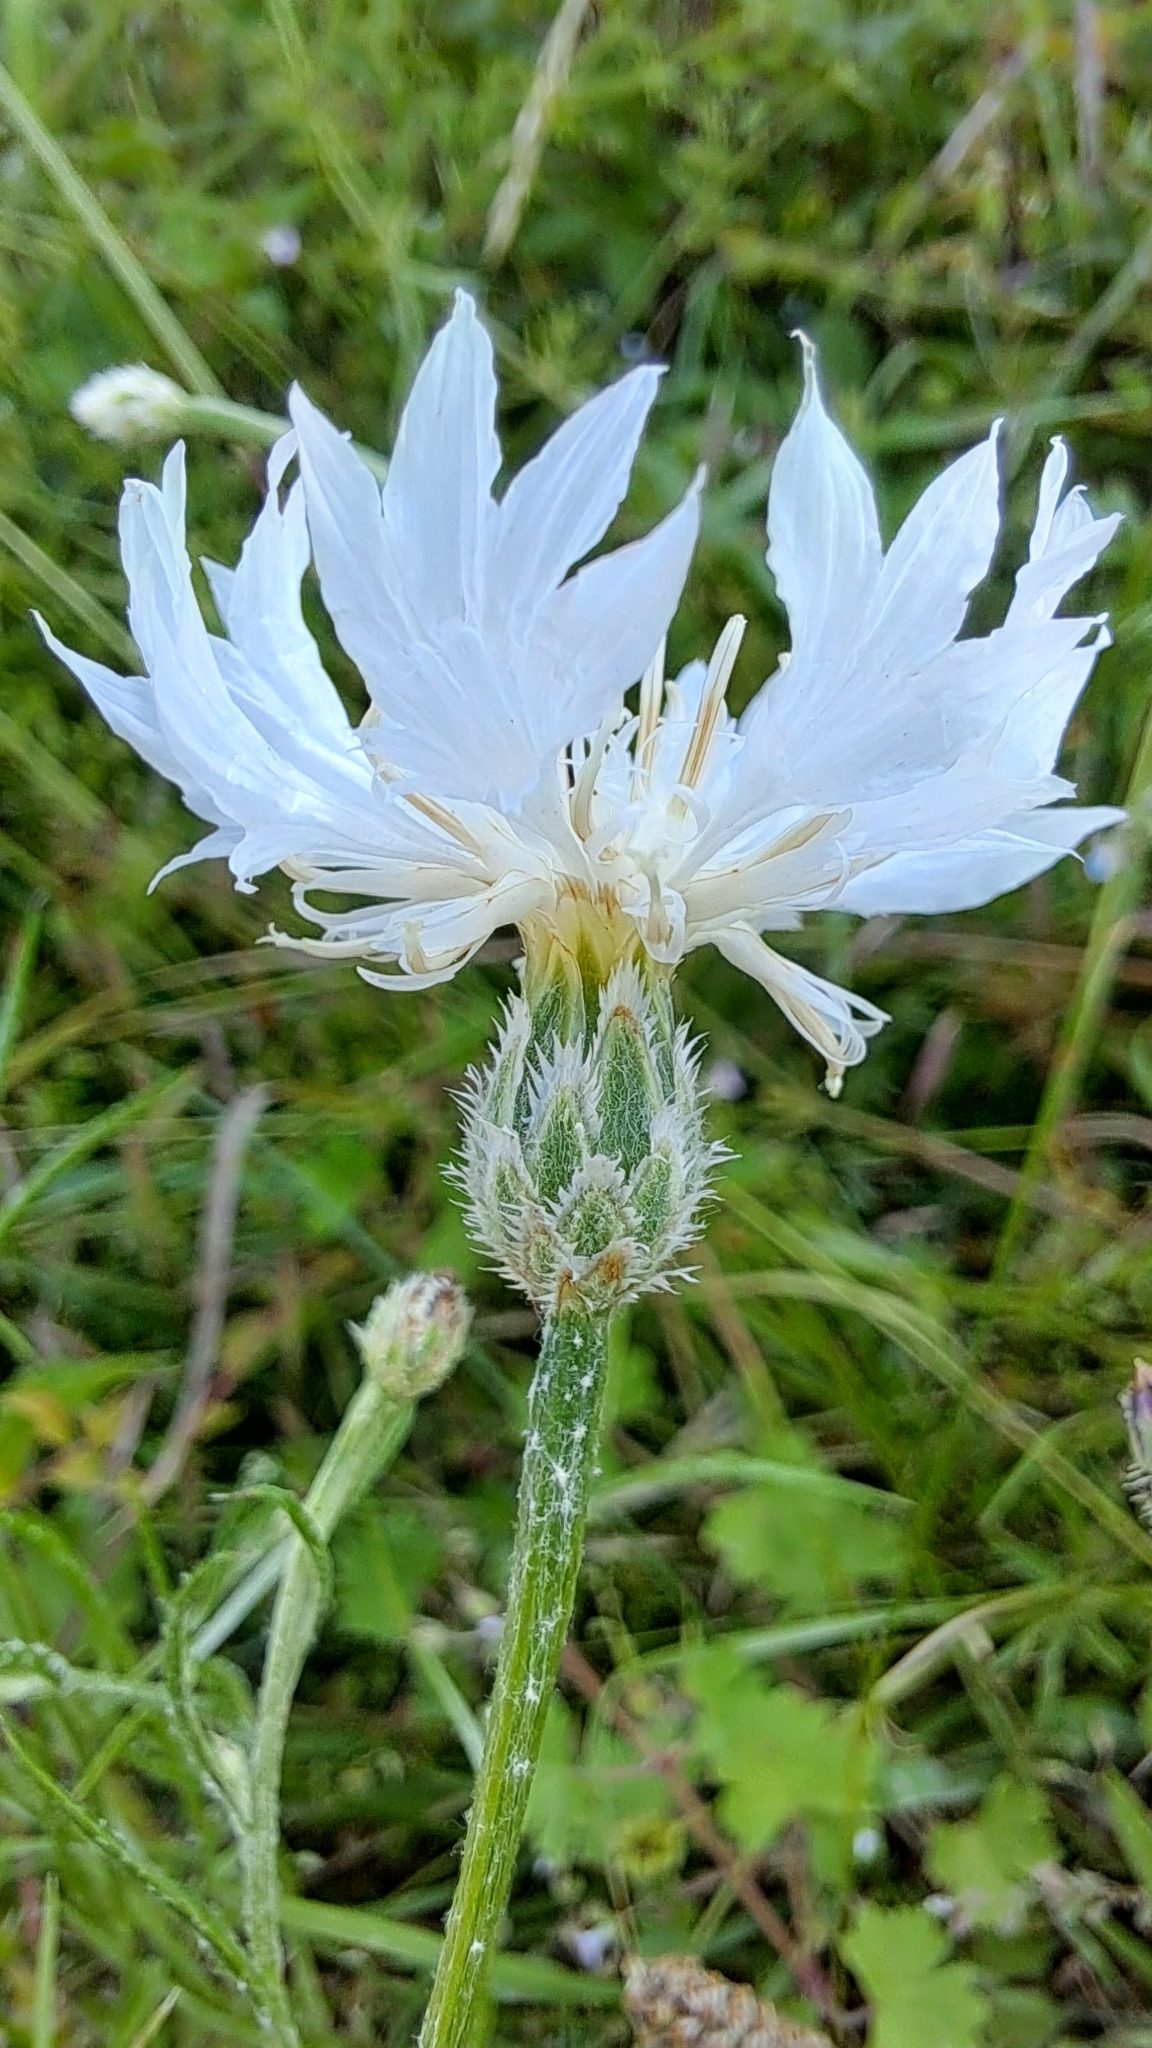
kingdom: Plantae
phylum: Tracheophyta
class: Magnoliopsida
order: Asterales
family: Asteraceae
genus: Centaurea
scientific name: Centaurea cyanus
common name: Cornflower
